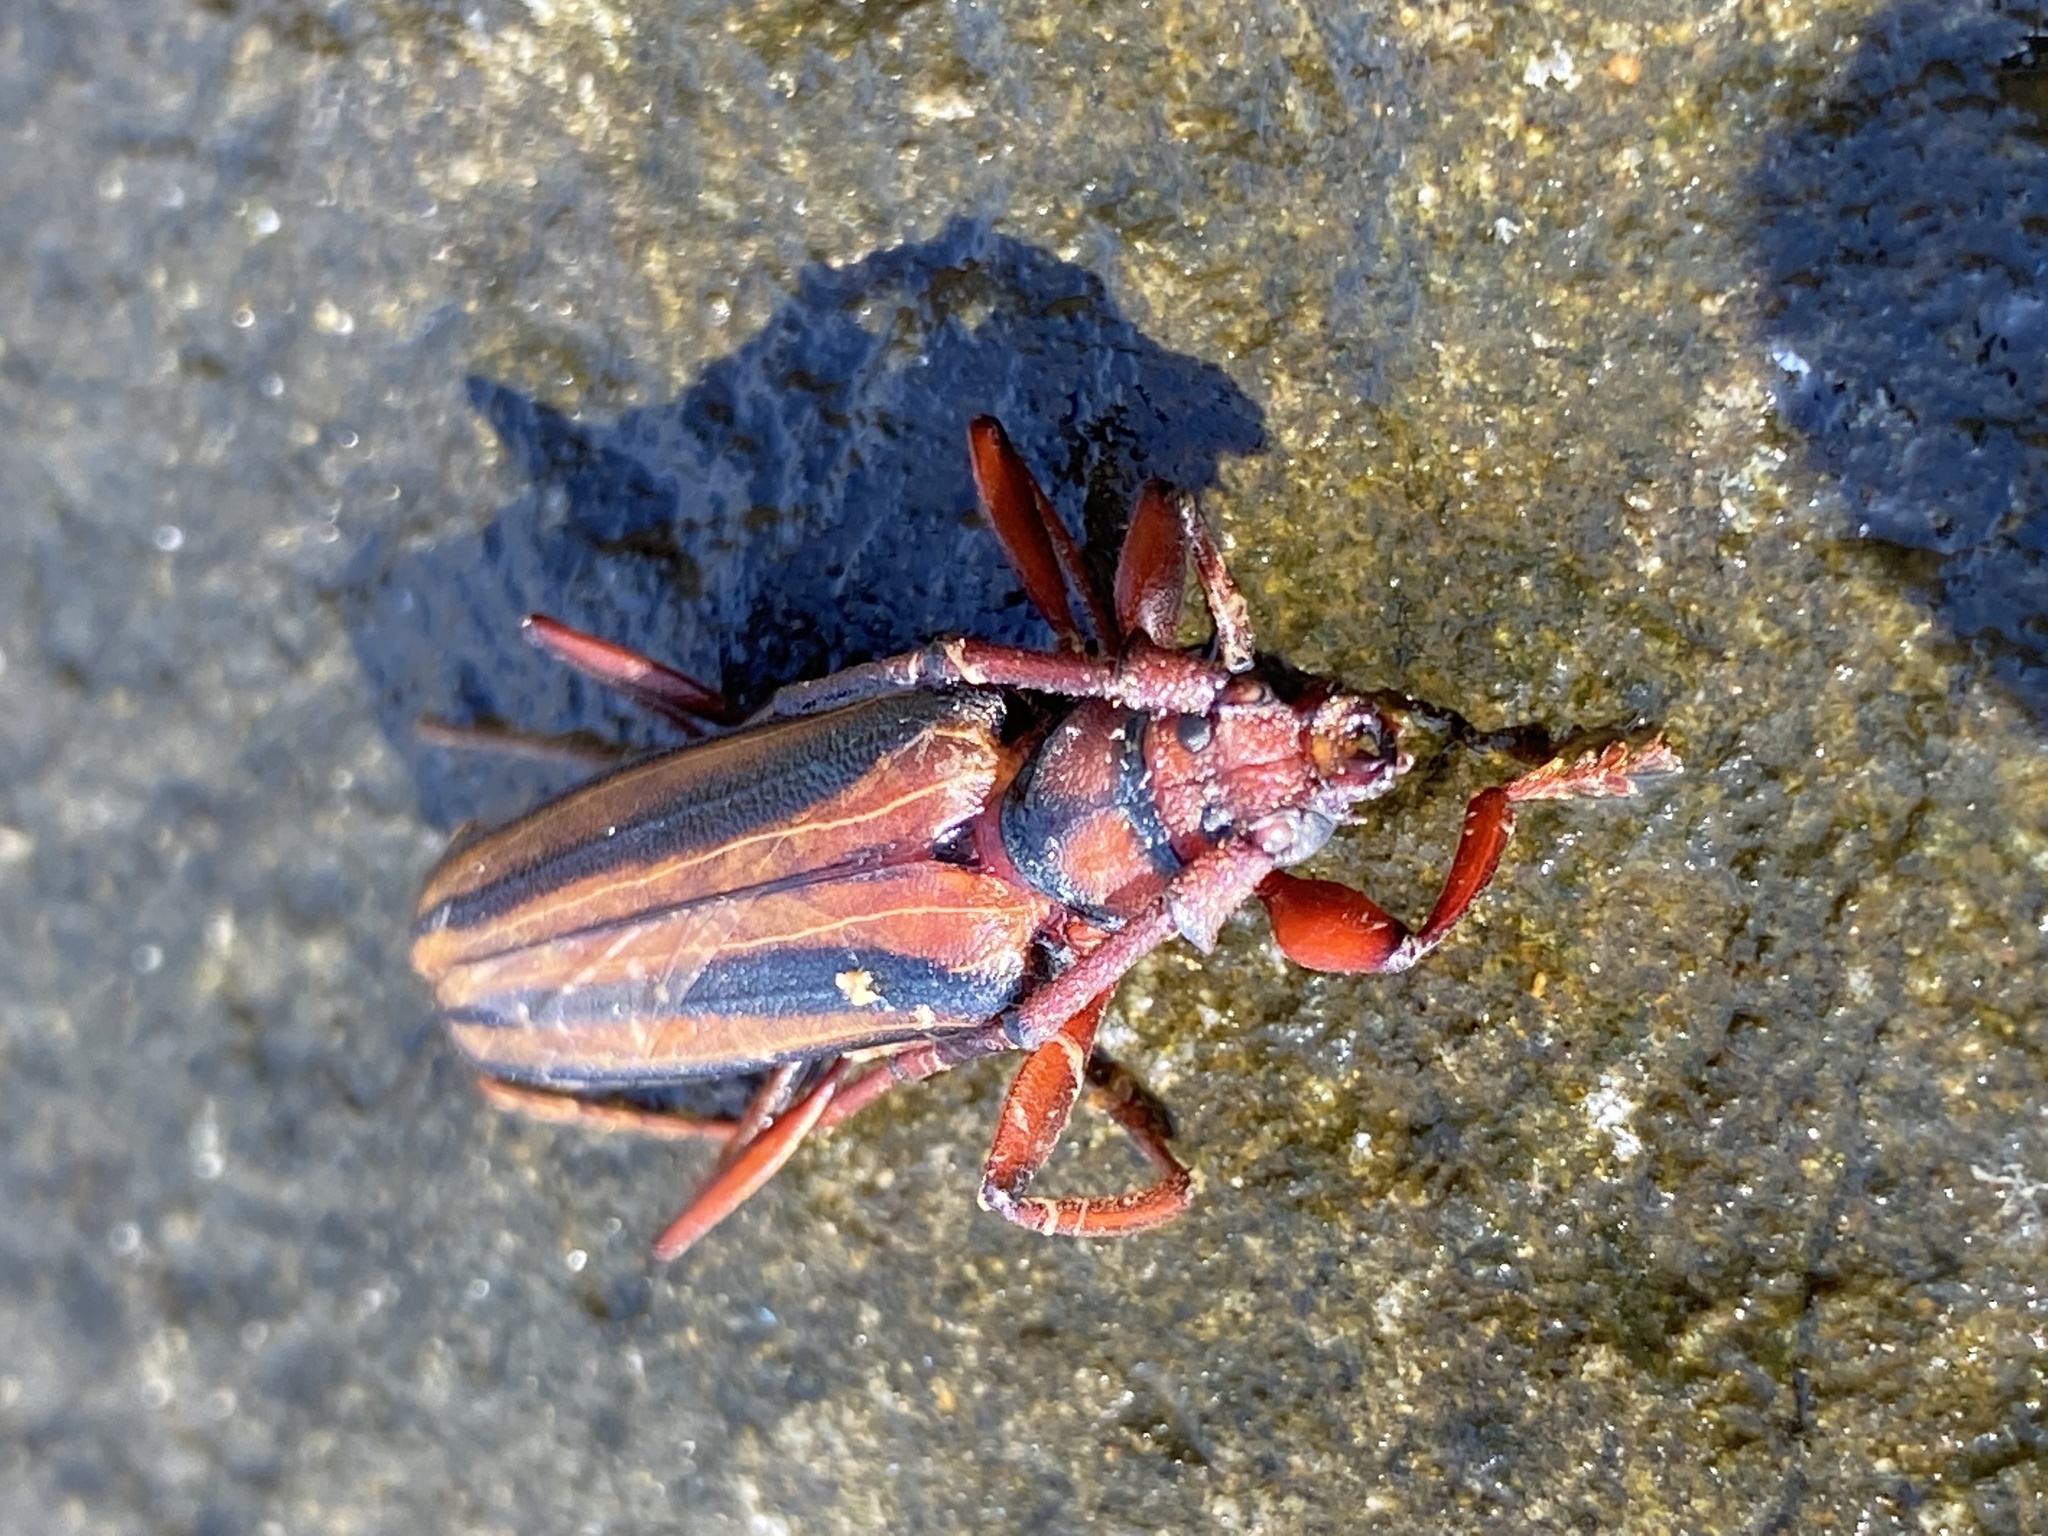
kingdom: Animalia
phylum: Arthropoda
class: Insecta
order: Coleoptera
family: Cerambycidae
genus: Xystrocera
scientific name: Xystrocera globosa
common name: Peach-tree longhorn
